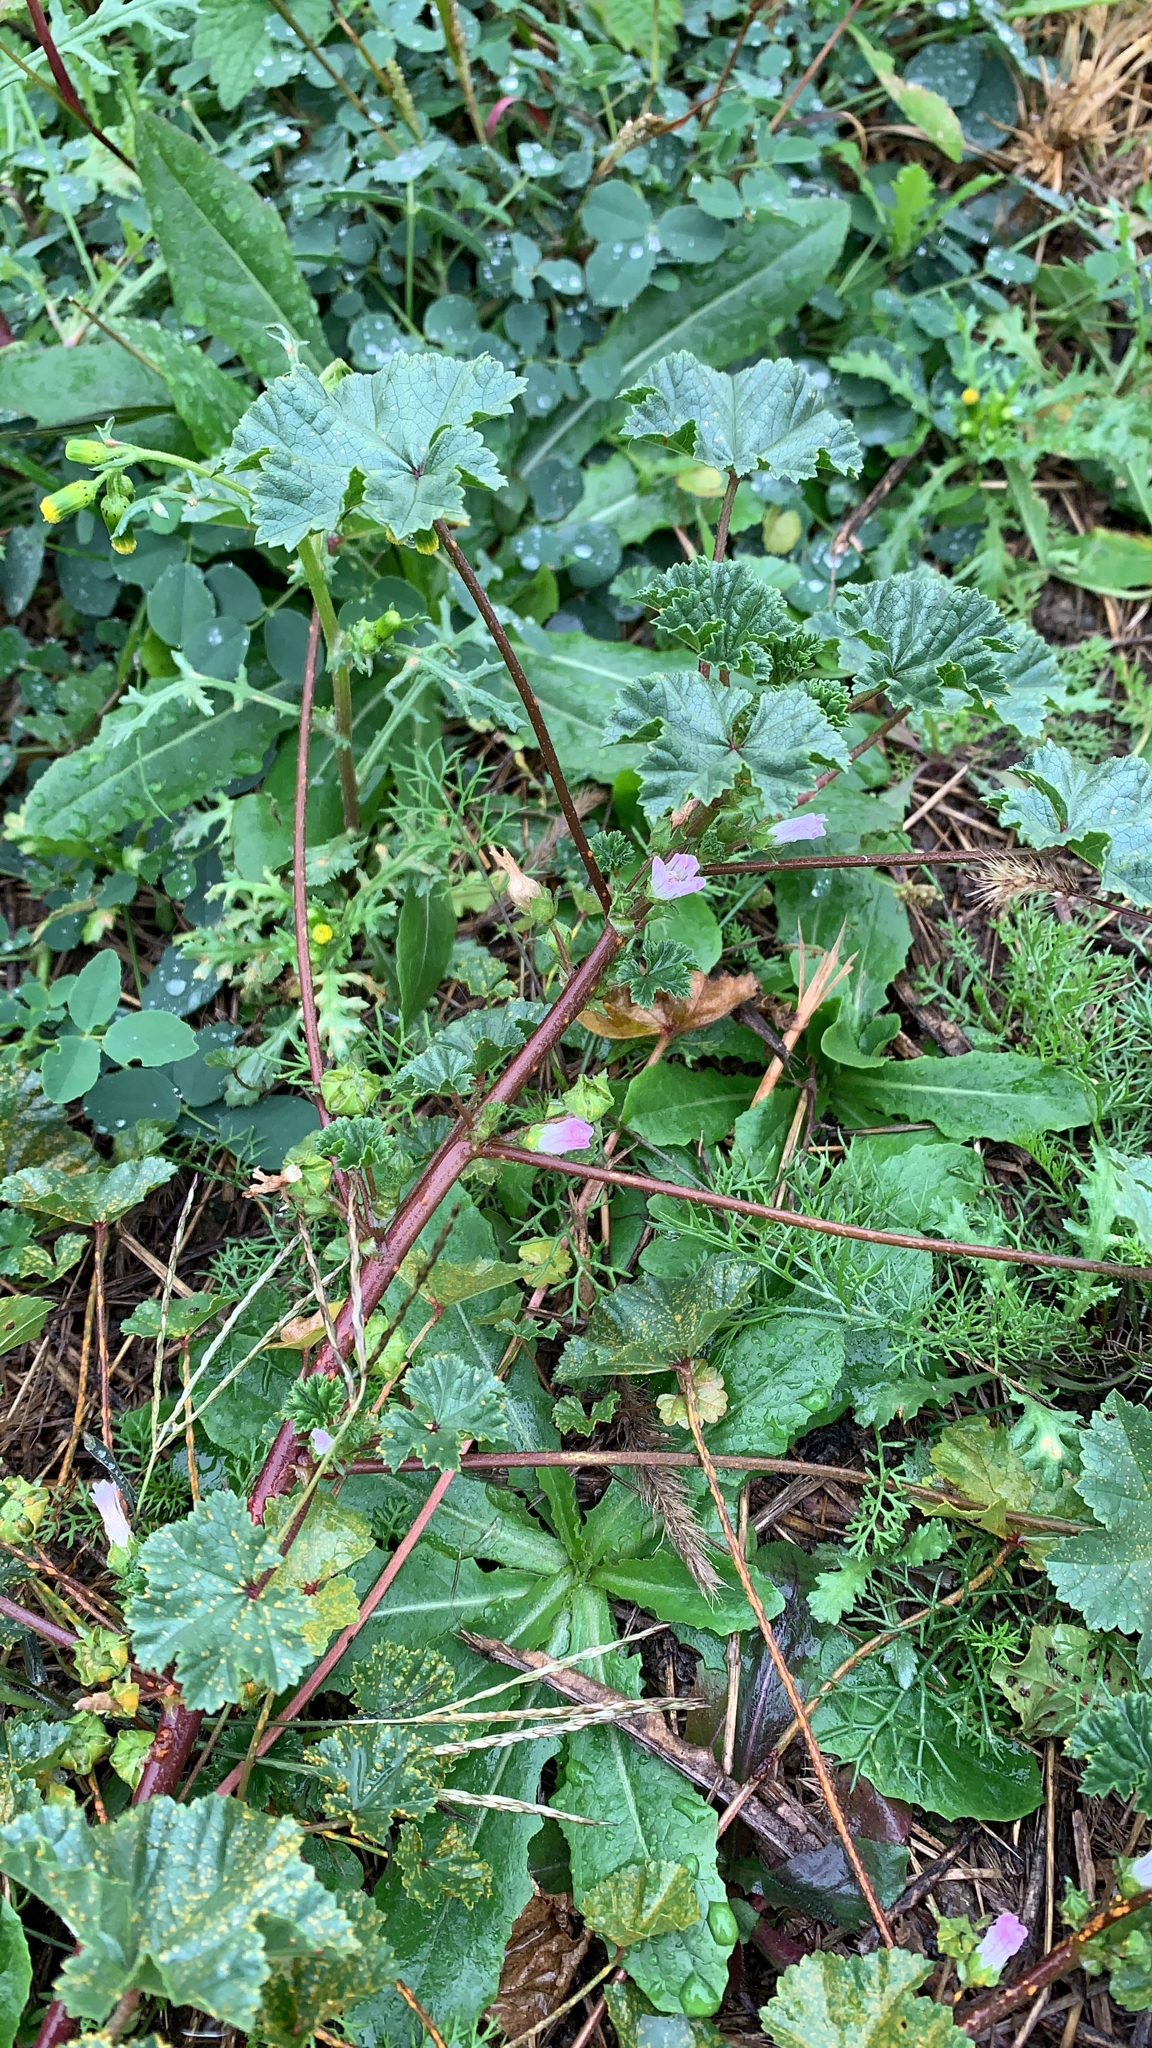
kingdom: Plantae
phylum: Tracheophyta
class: Magnoliopsida
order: Malvales
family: Malvaceae
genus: Malva
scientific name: Malva neglecta
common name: Common mallow
